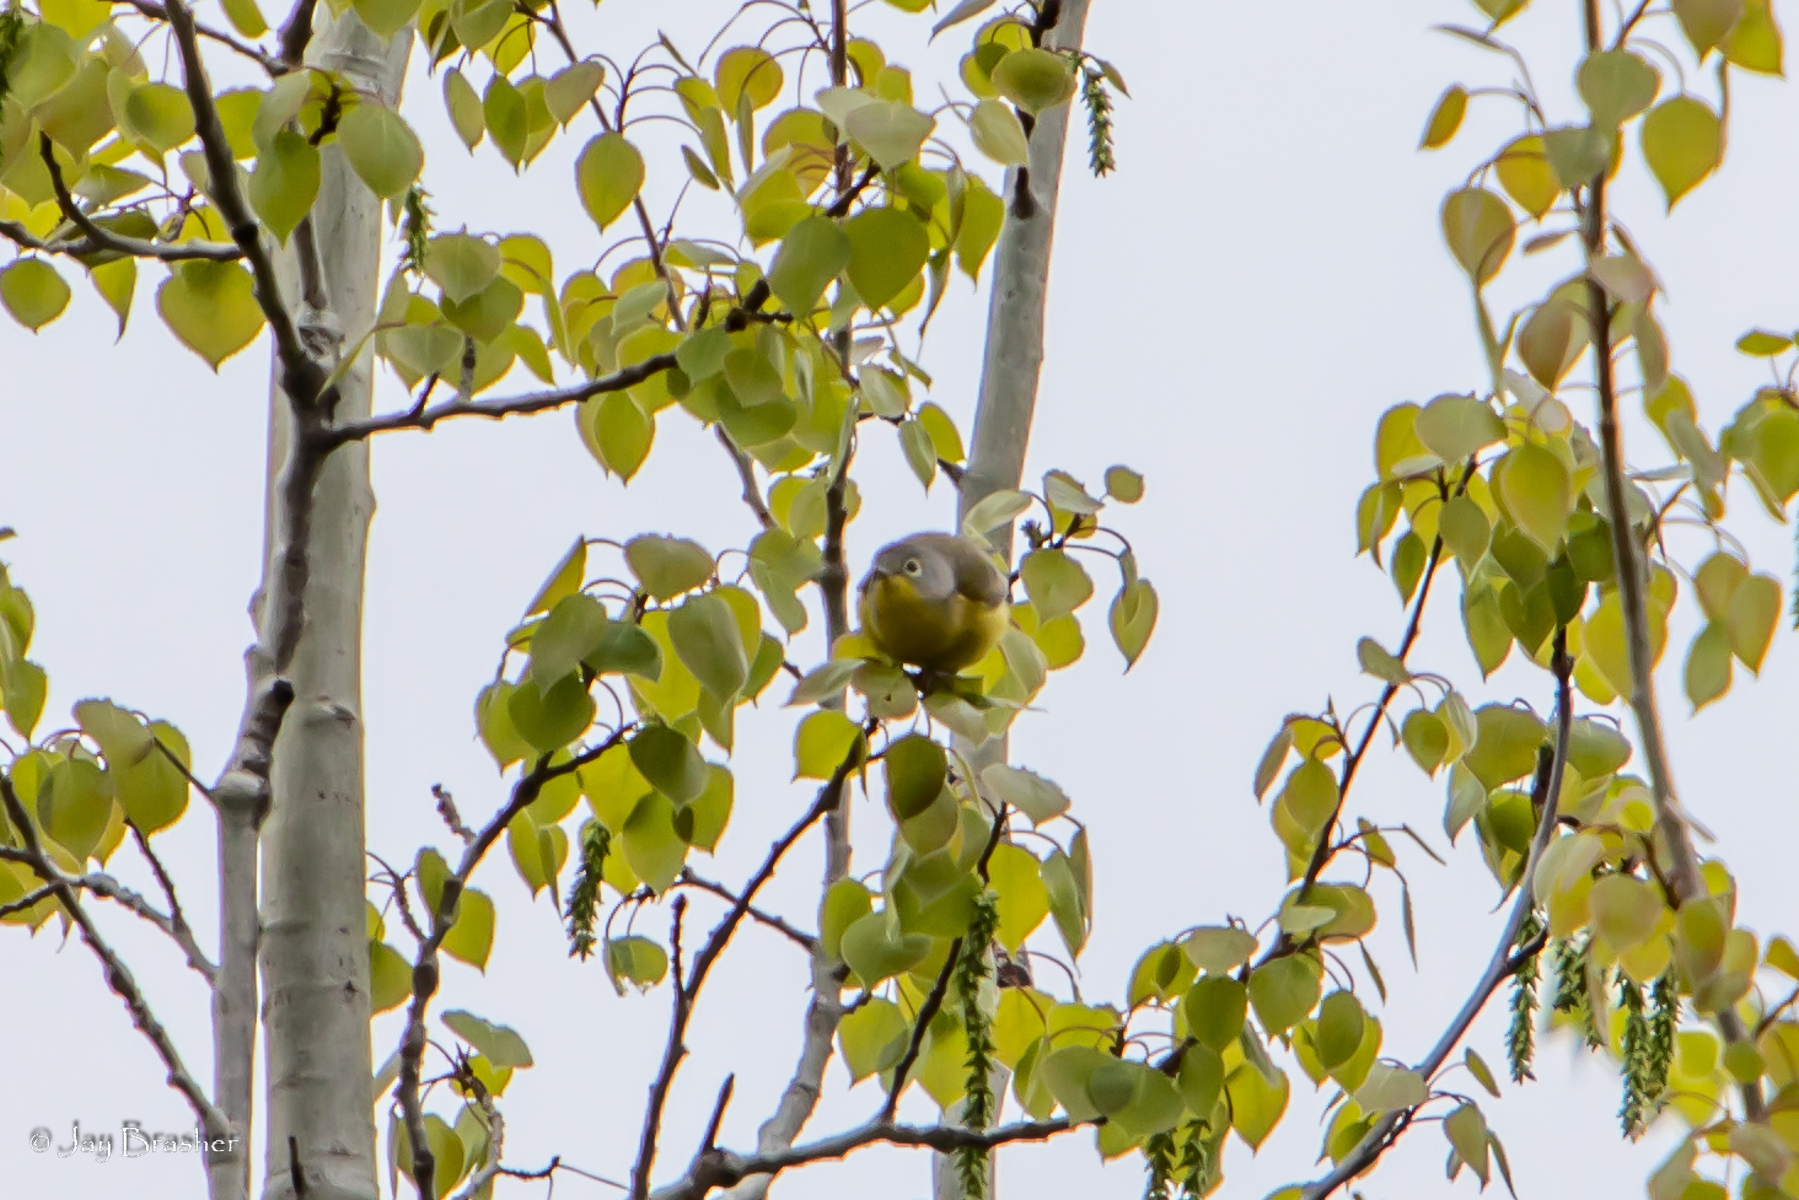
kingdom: Animalia
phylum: Chordata
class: Aves
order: Passeriformes
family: Parulidae
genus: Leiothlypis
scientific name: Leiothlypis ruficapilla
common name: Nashville warbler
